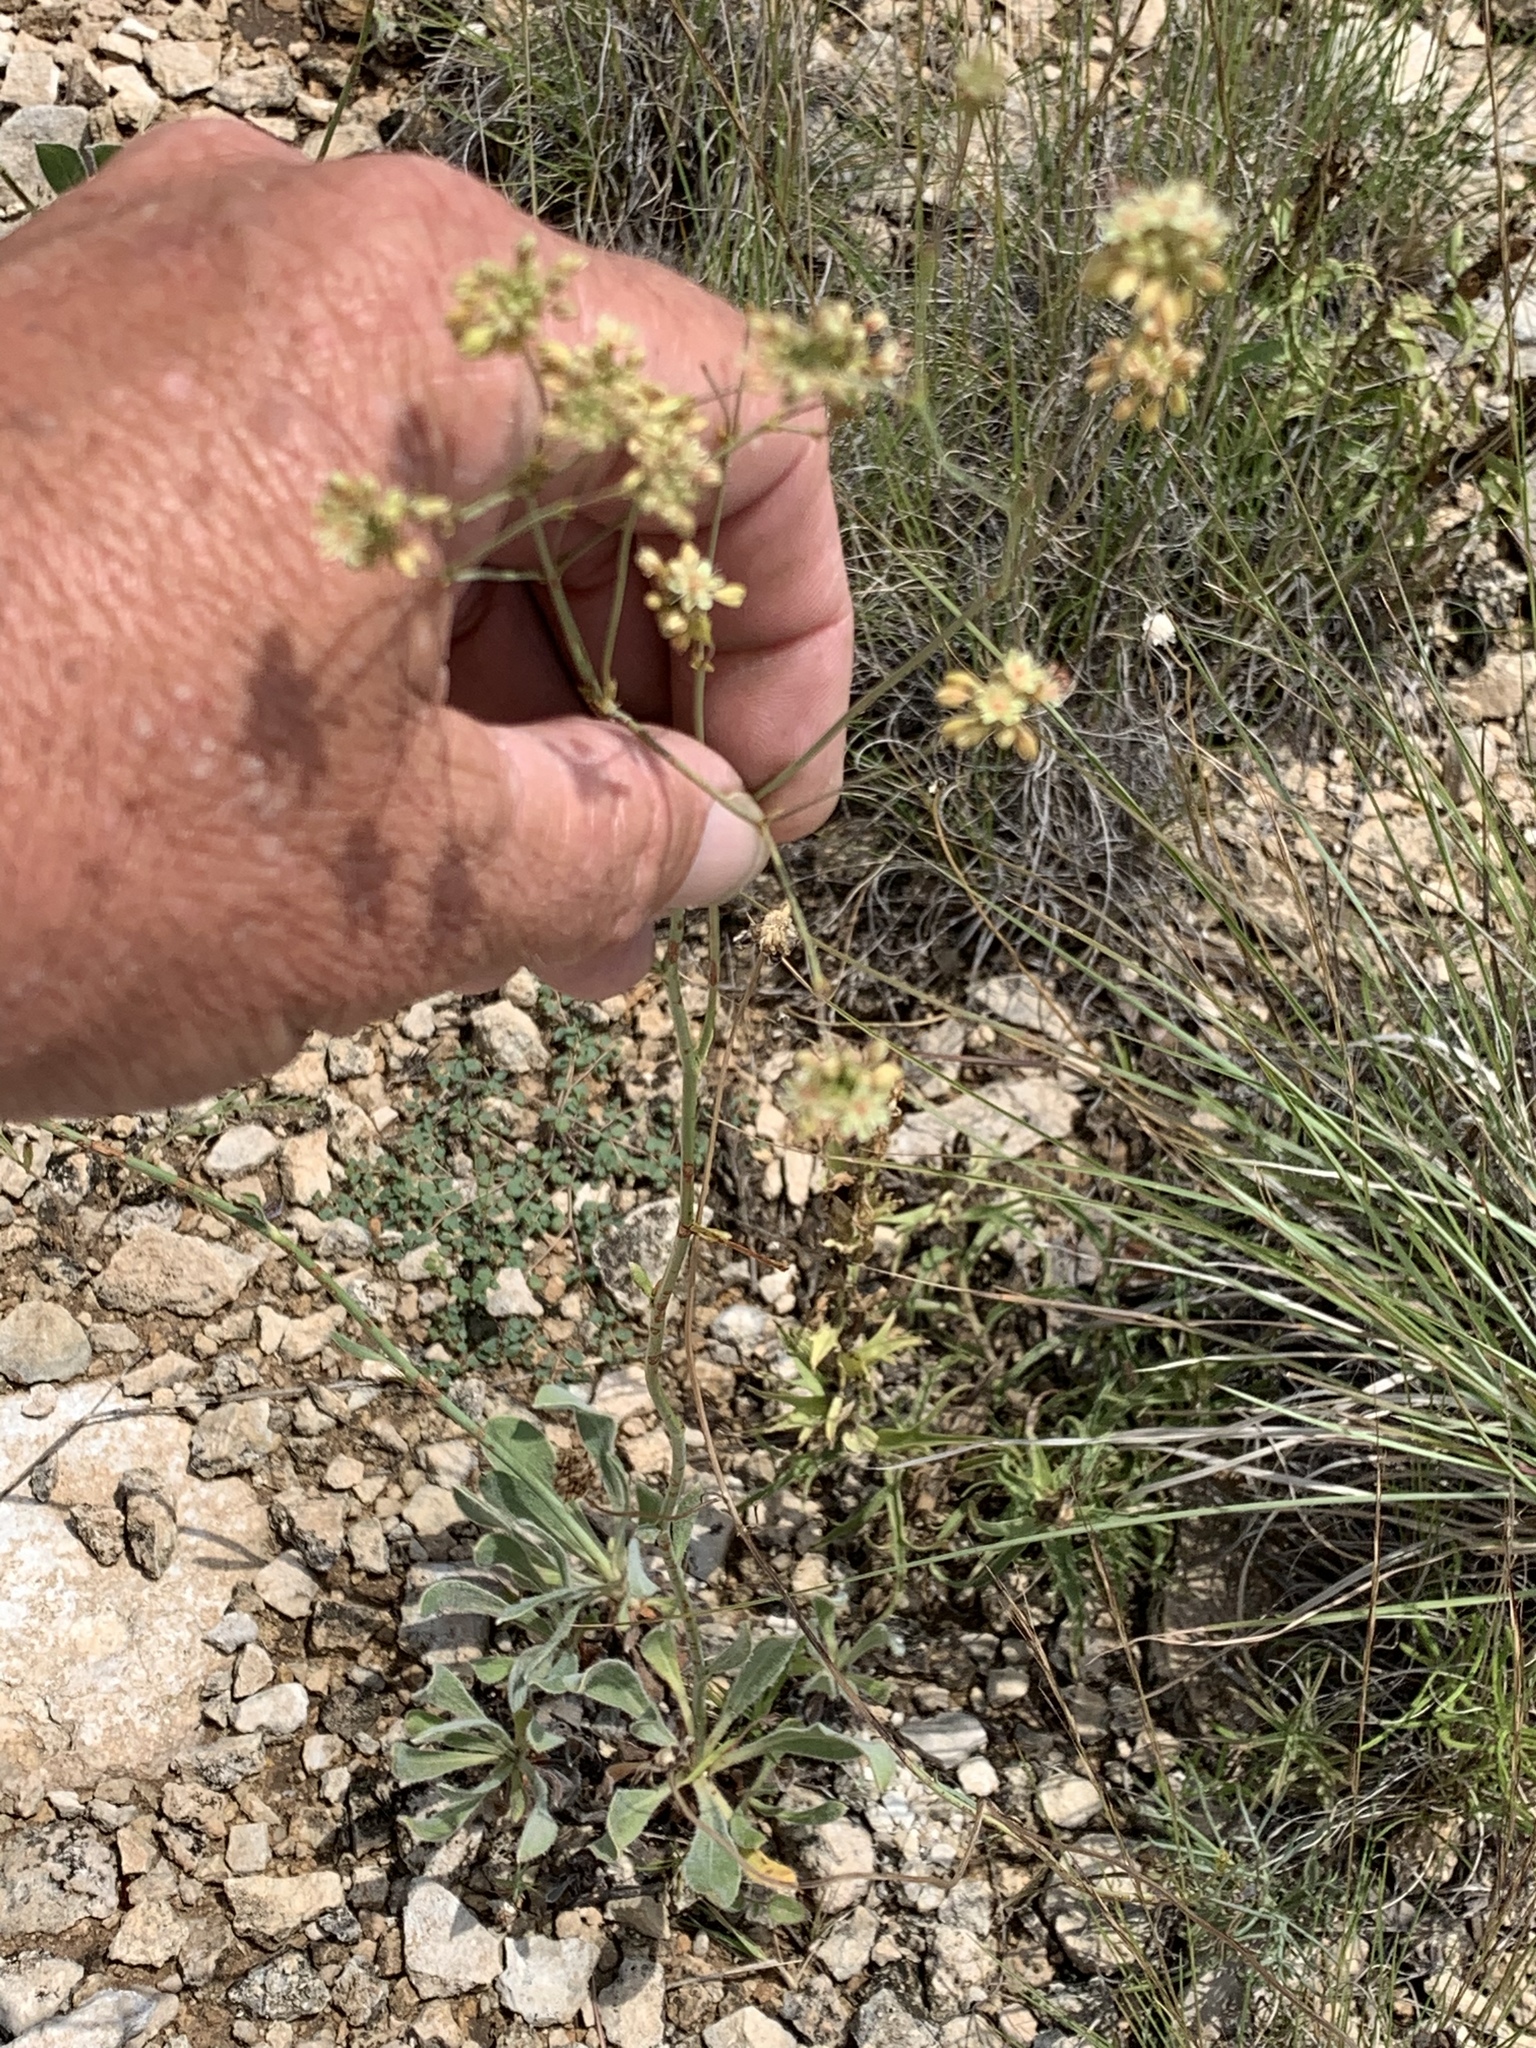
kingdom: Plantae
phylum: Tracheophyta
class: Magnoliopsida
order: Caryophyllales
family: Polygonaceae
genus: Eriogonum
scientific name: Eriogonum nealleyi
